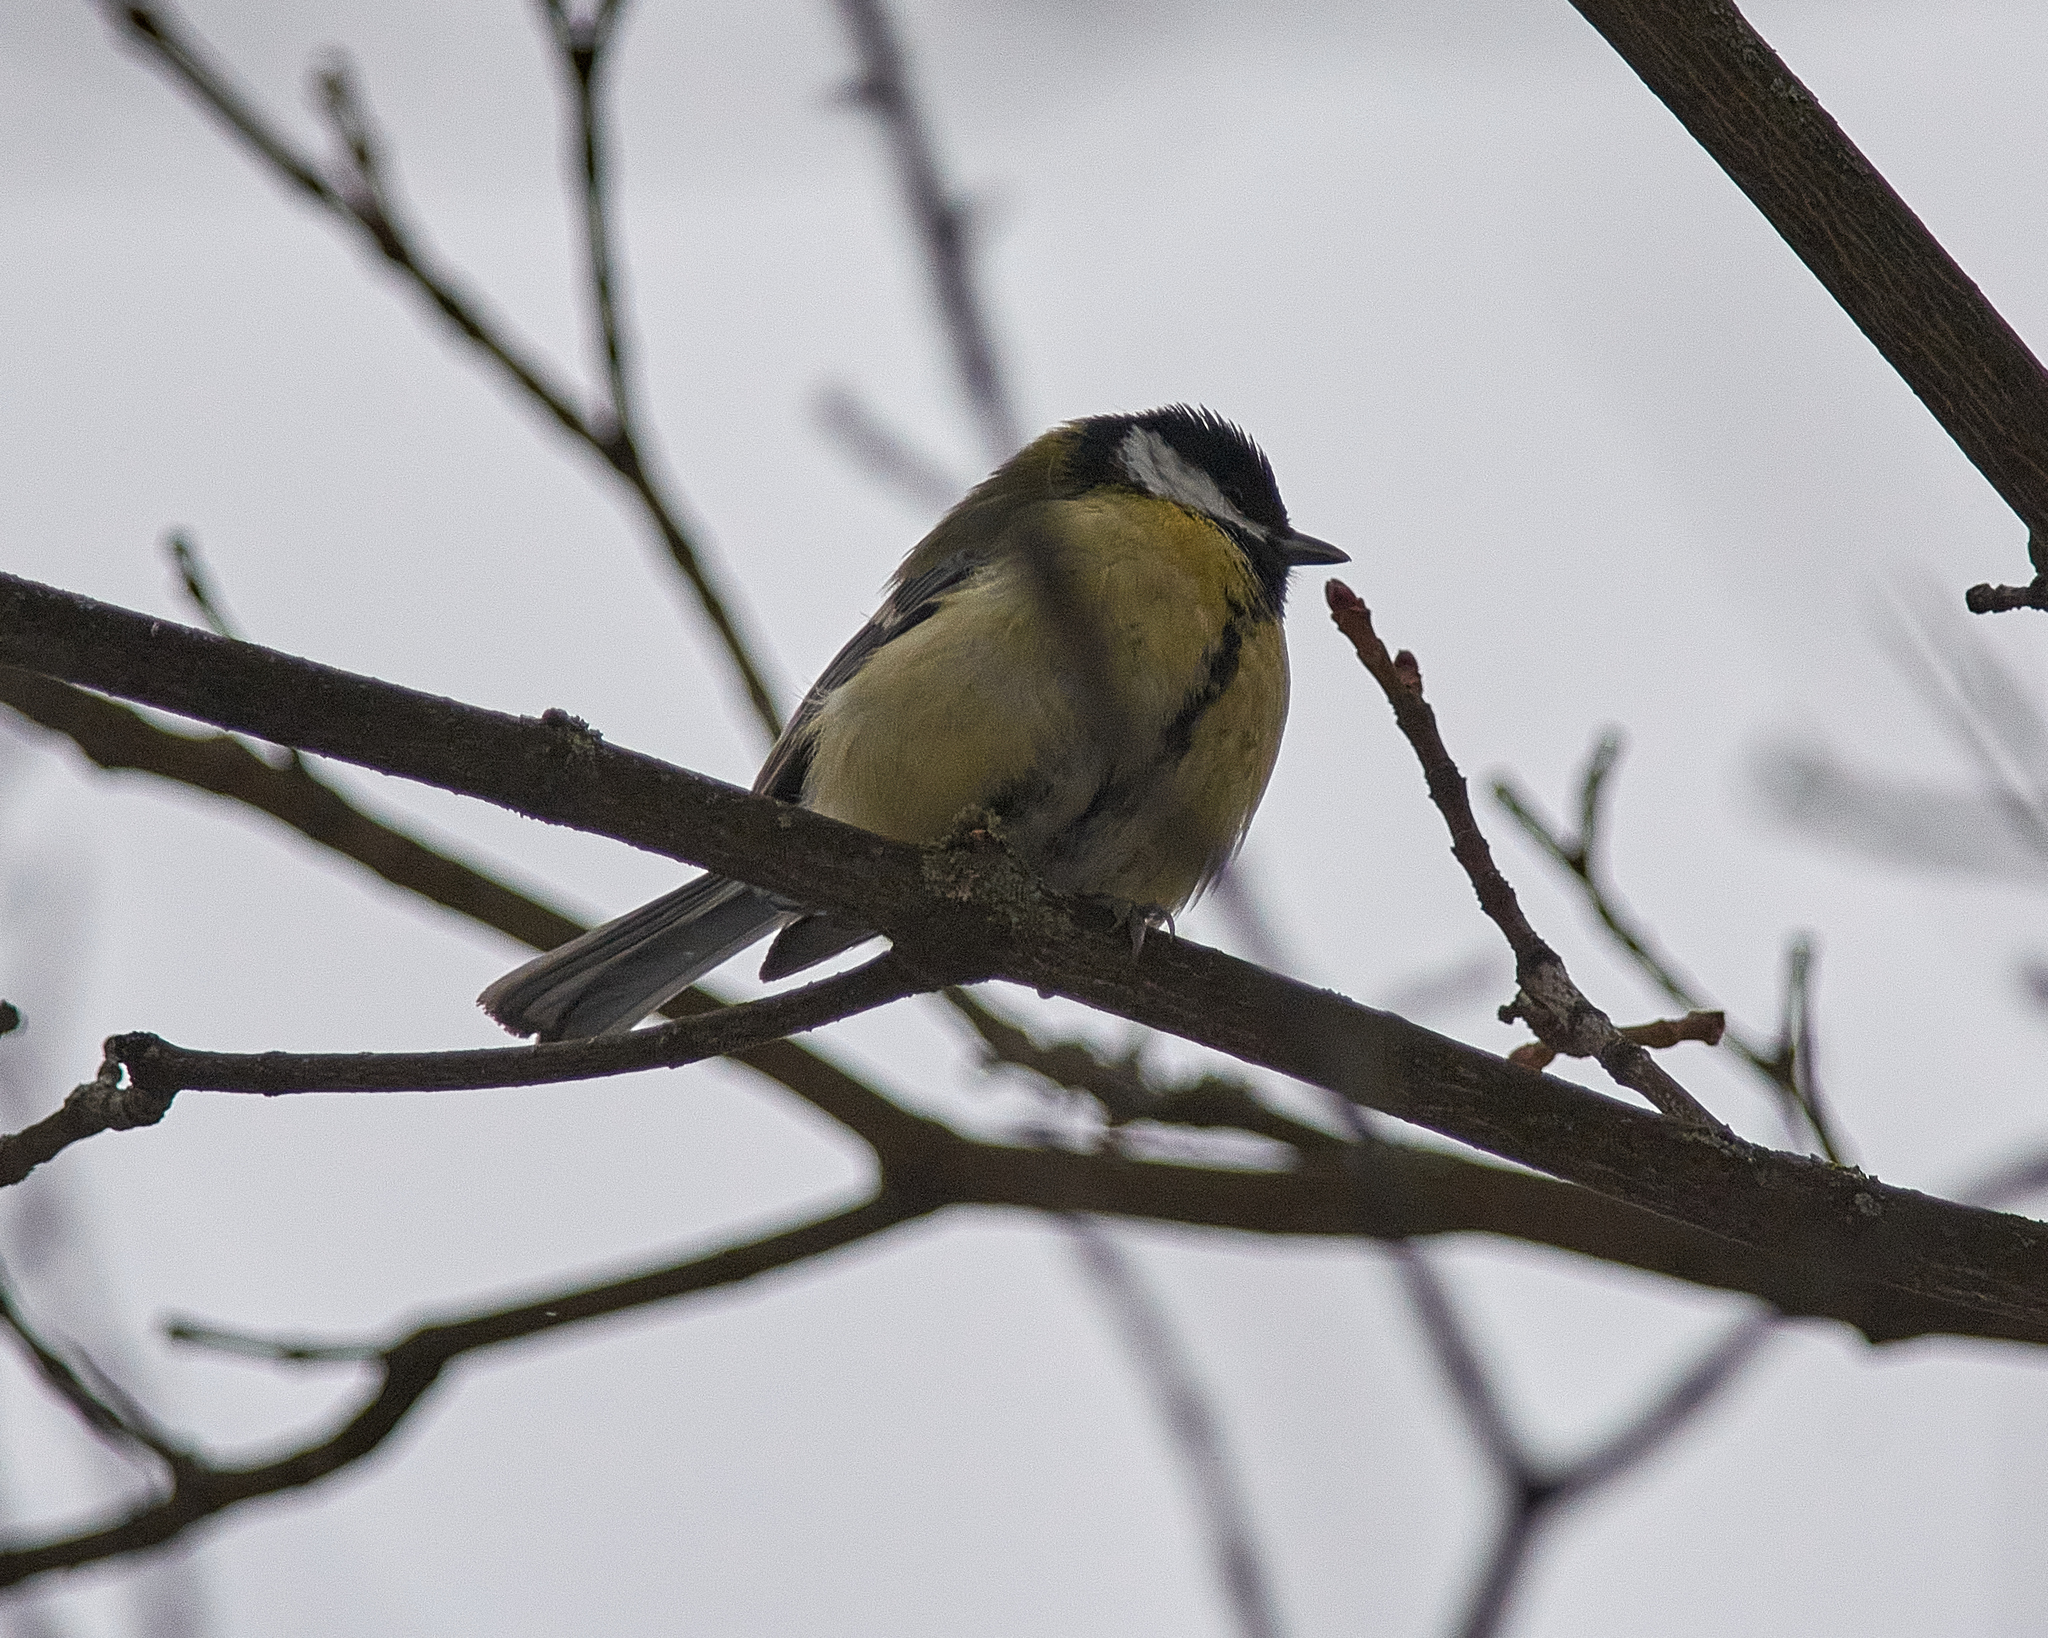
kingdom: Animalia
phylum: Chordata
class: Aves
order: Passeriformes
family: Paridae
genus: Parus
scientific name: Parus major
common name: Great tit
